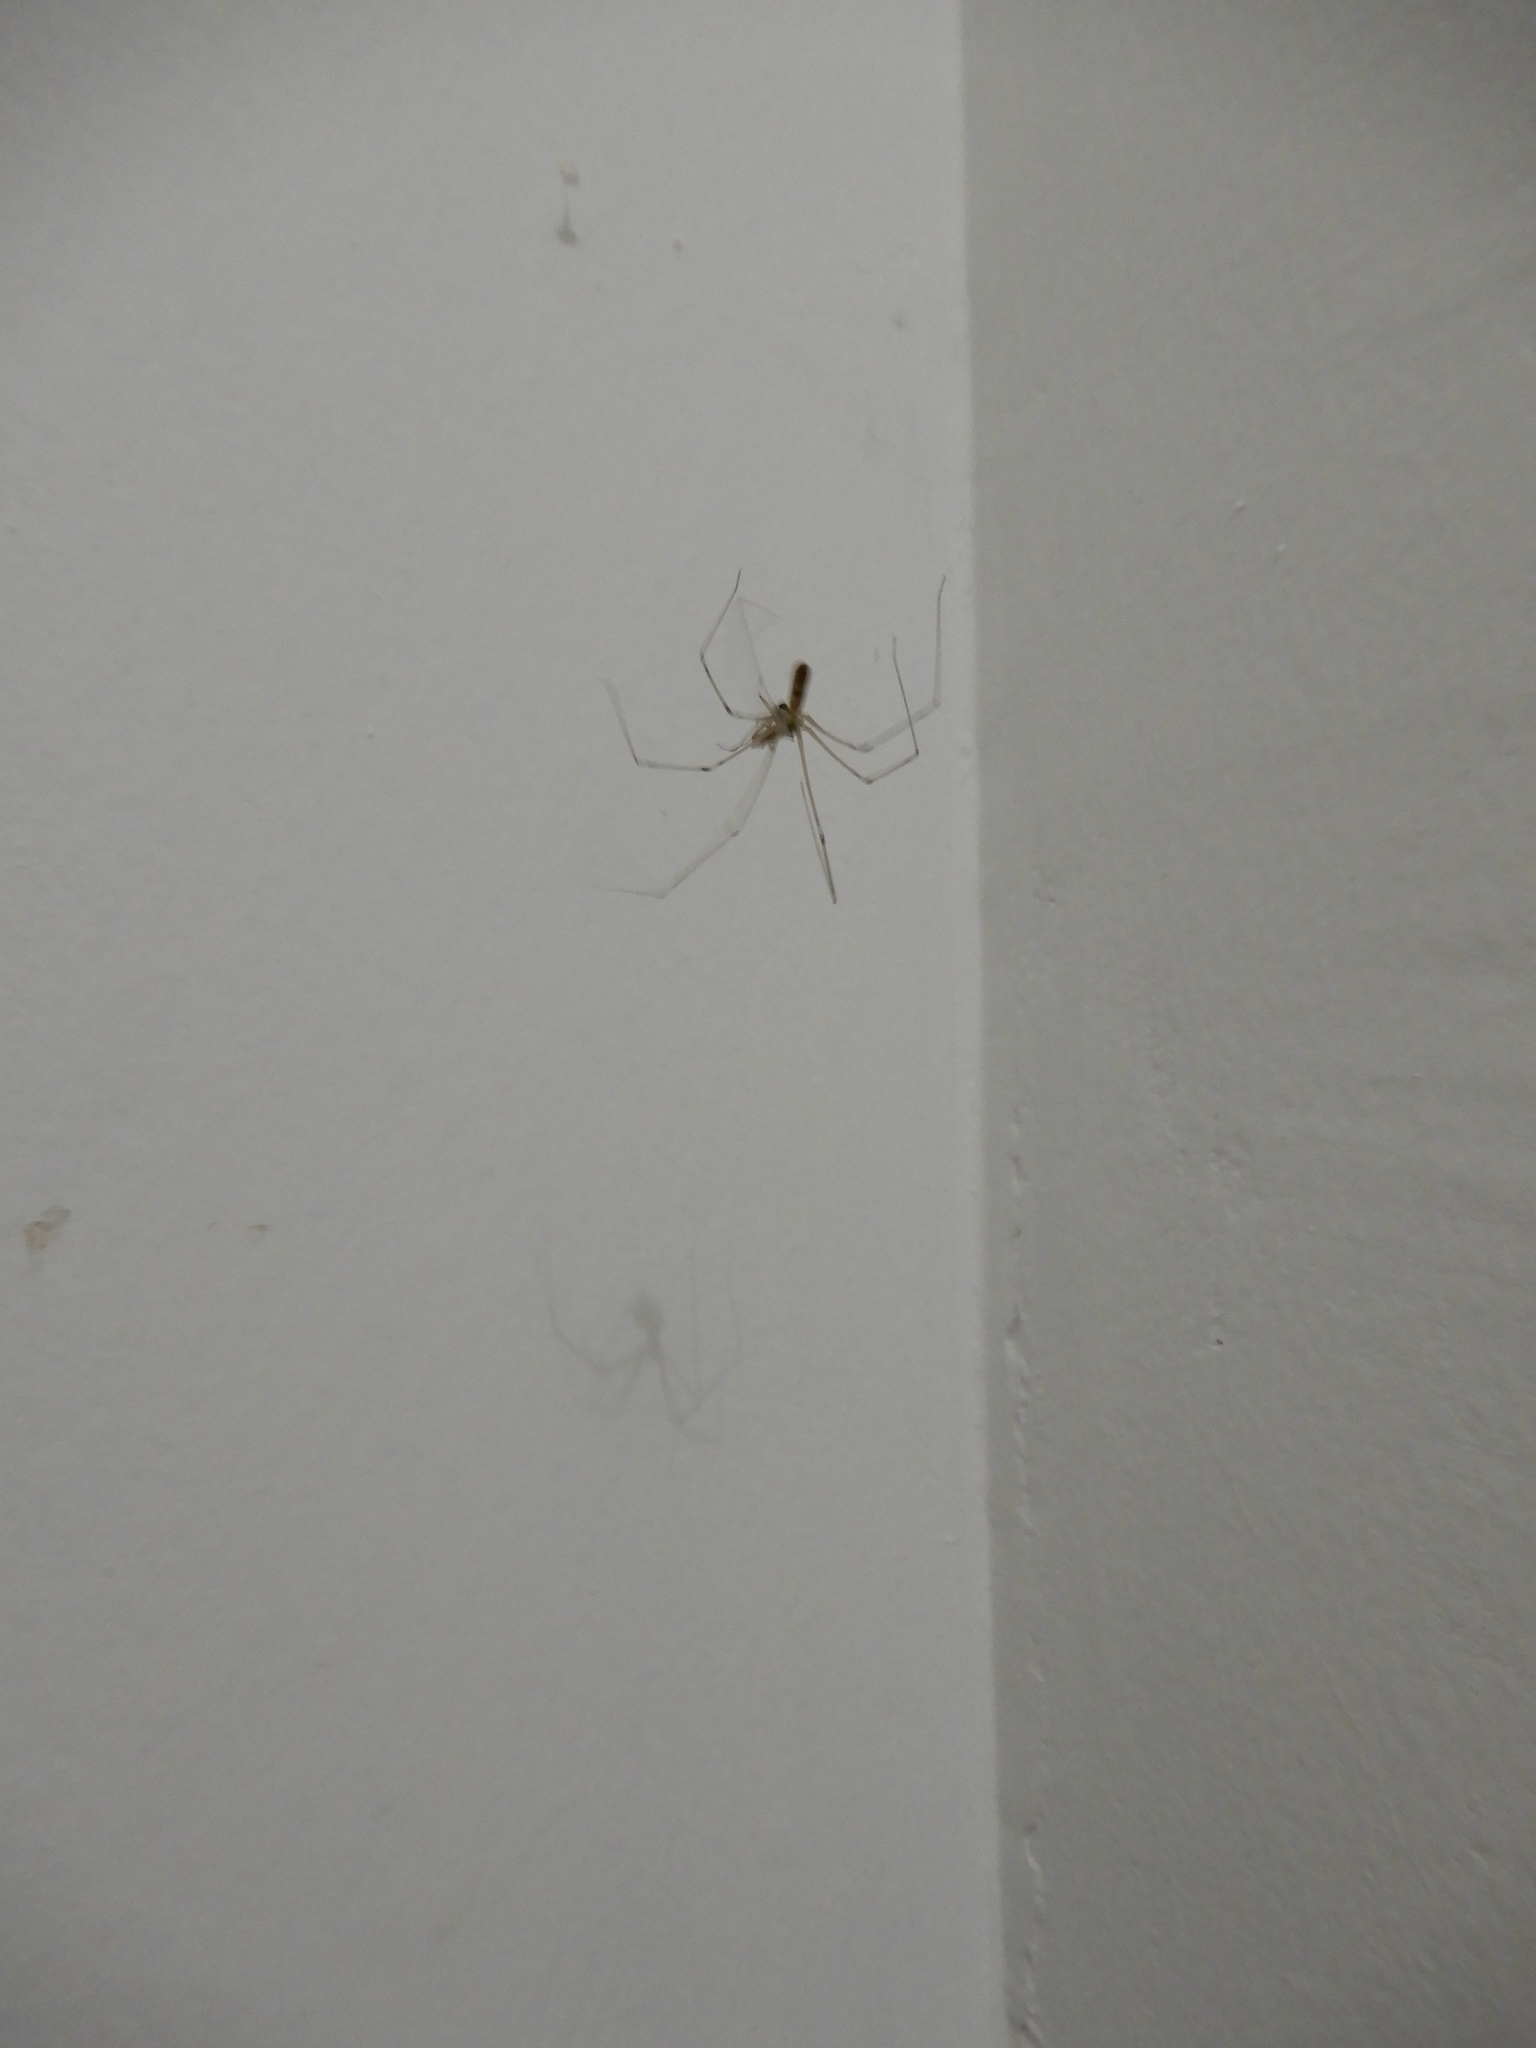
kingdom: Animalia
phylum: Arthropoda
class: Arachnida
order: Araneae
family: Pholcidae
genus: Pholcus
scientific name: Pholcus phalangioides
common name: Longbodied cellar spider
